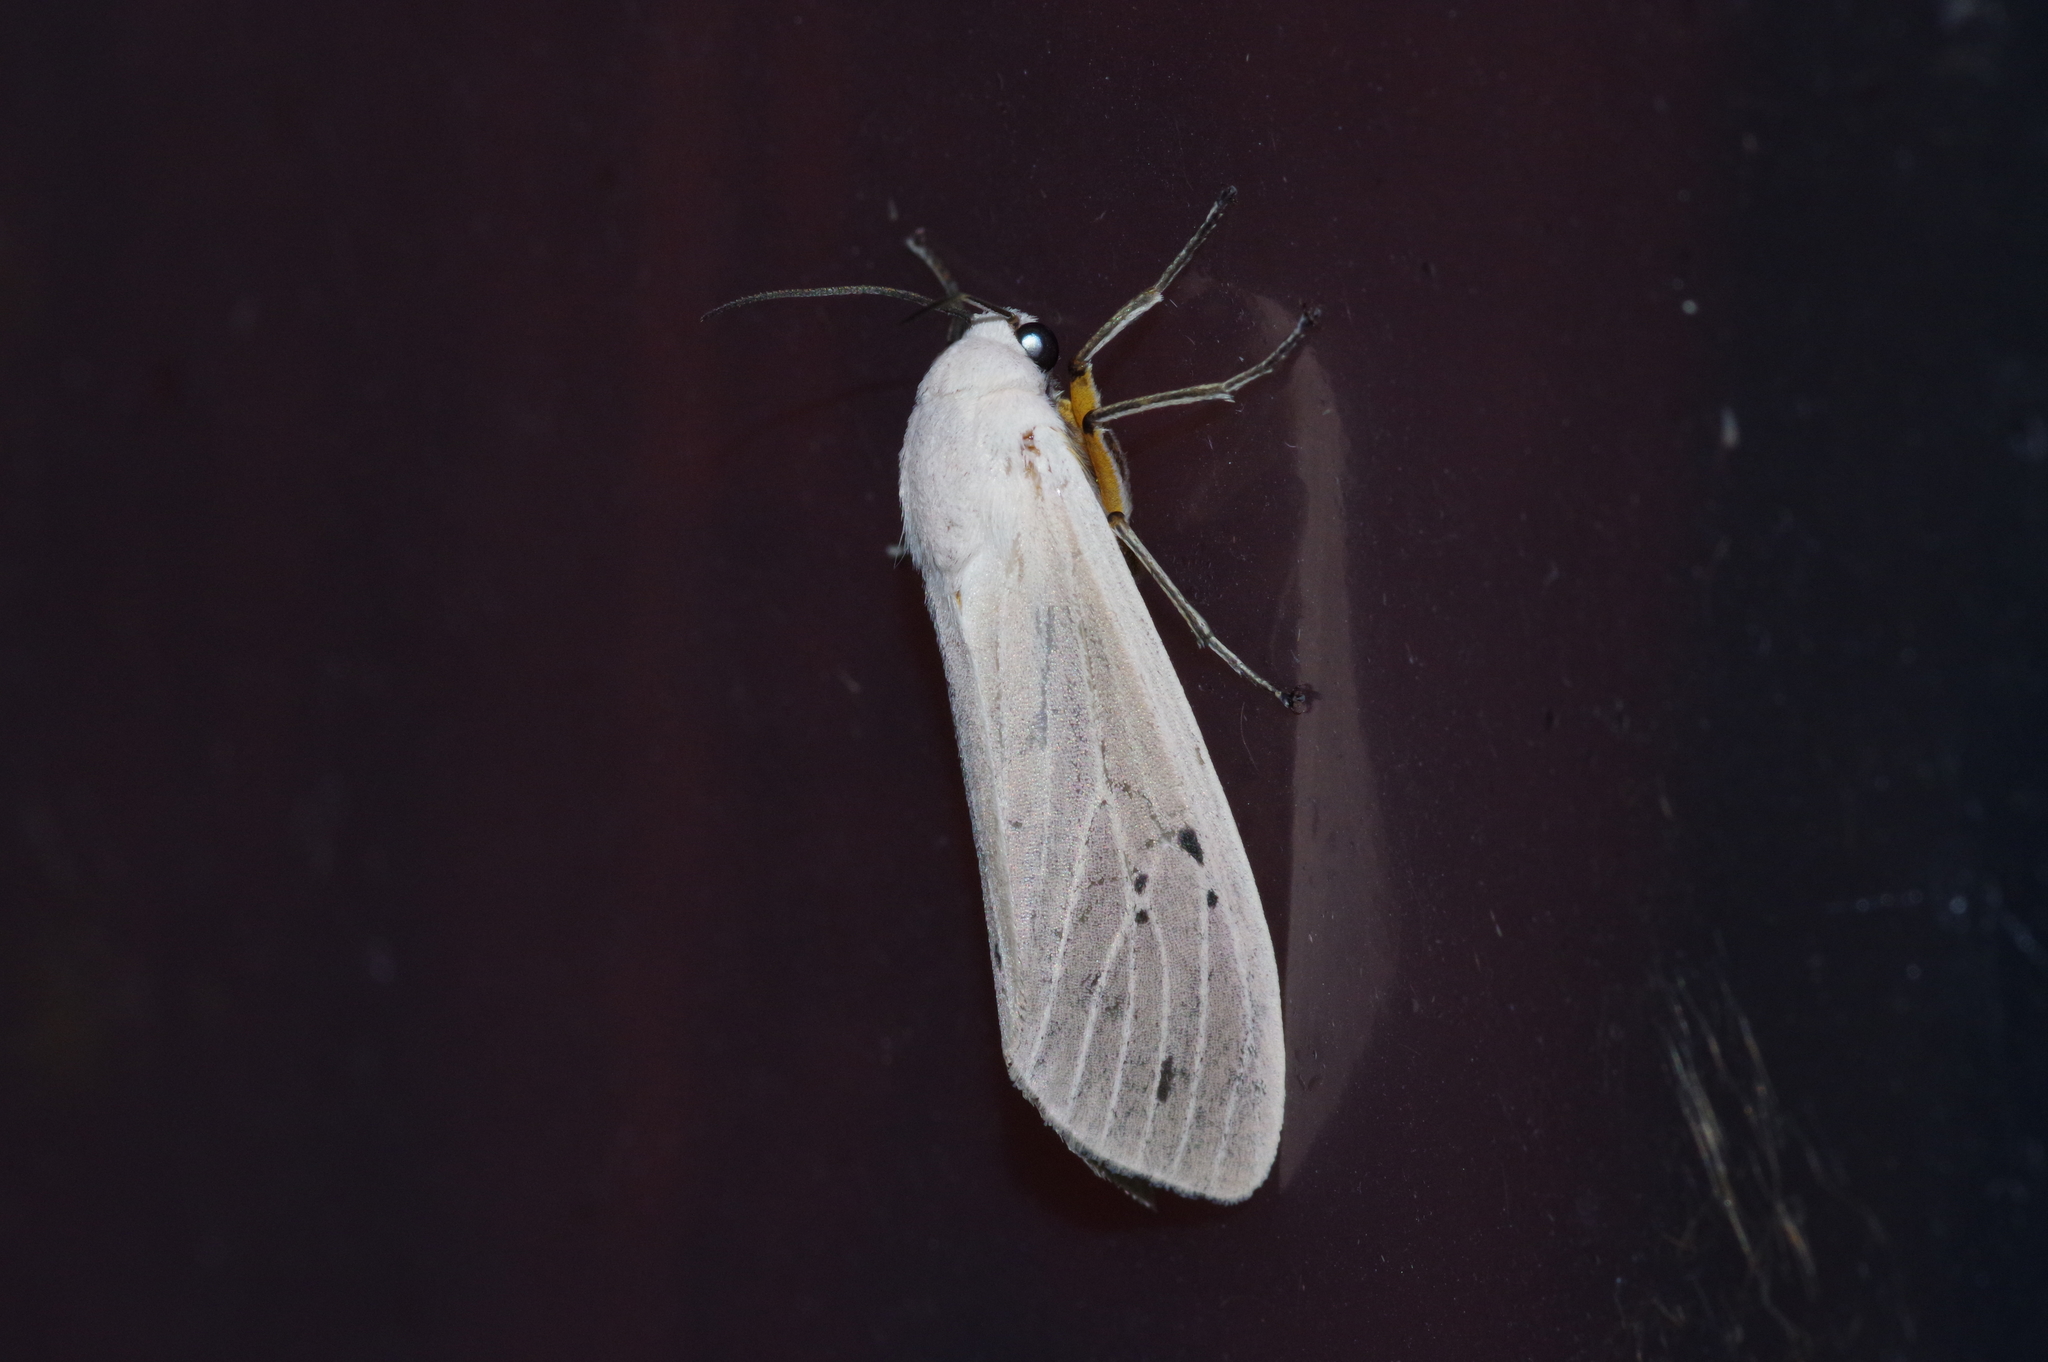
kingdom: Animalia
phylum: Arthropoda
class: Insecta
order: Lepidoptera
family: Erebidae
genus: Creatonotos
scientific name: Creatonotos transiens
